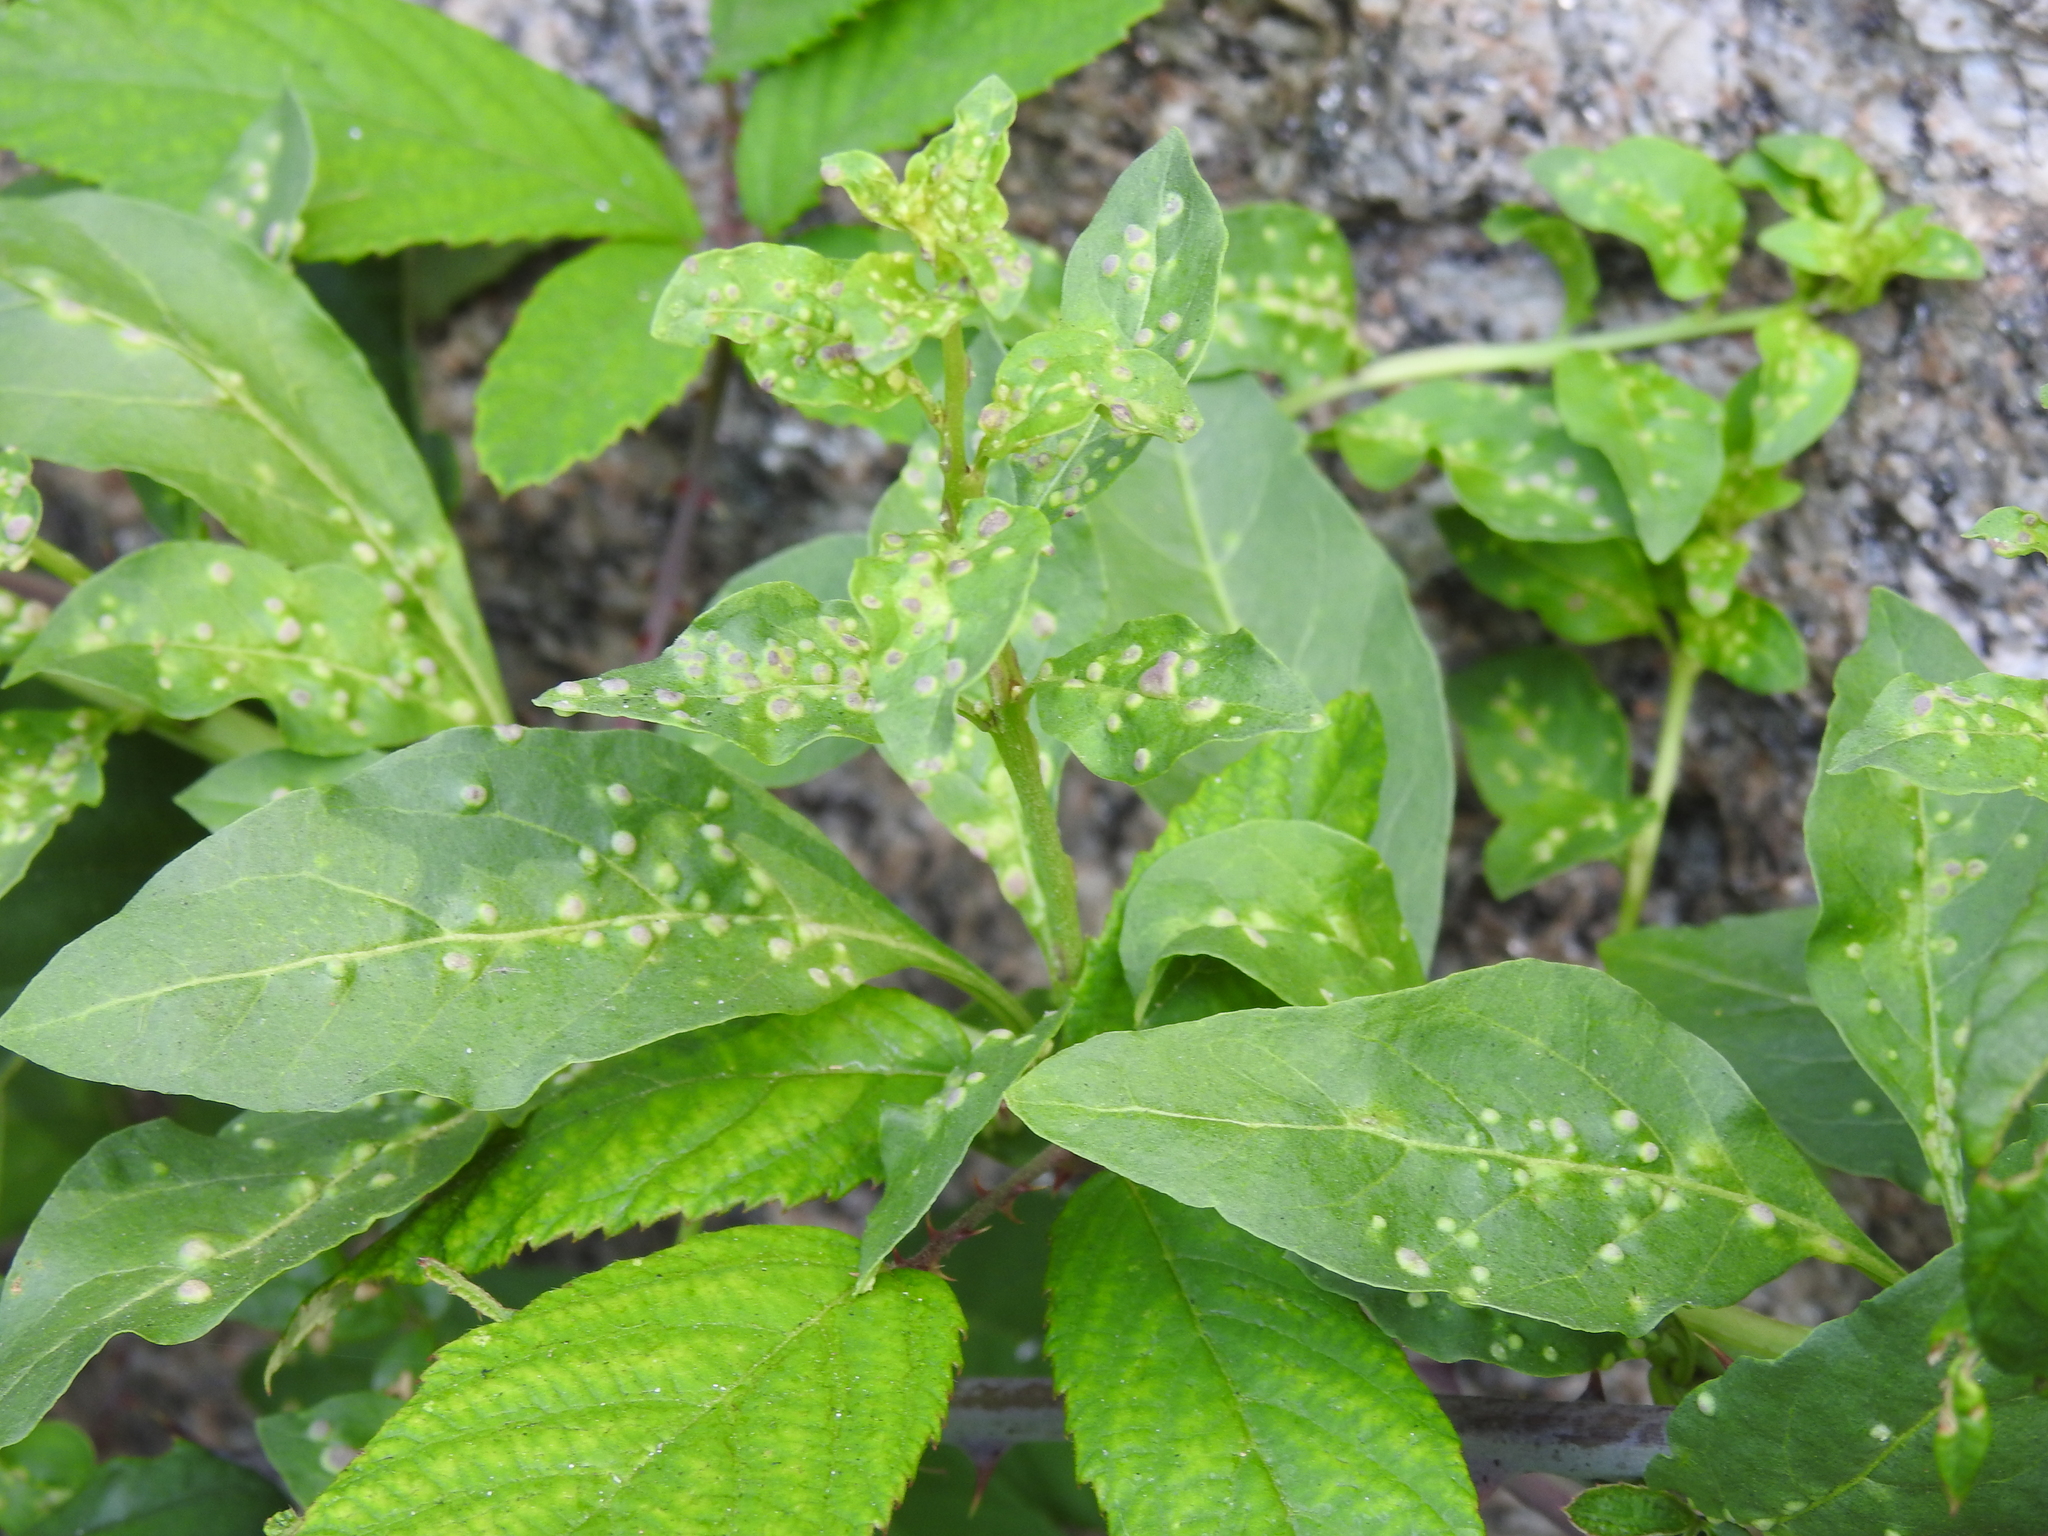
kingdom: Animalia
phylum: Arthropoda
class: Arachnida
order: Trombidiformes
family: Eriophyidae
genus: Aceria
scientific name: Aceria kuko
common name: Goji gall mite
